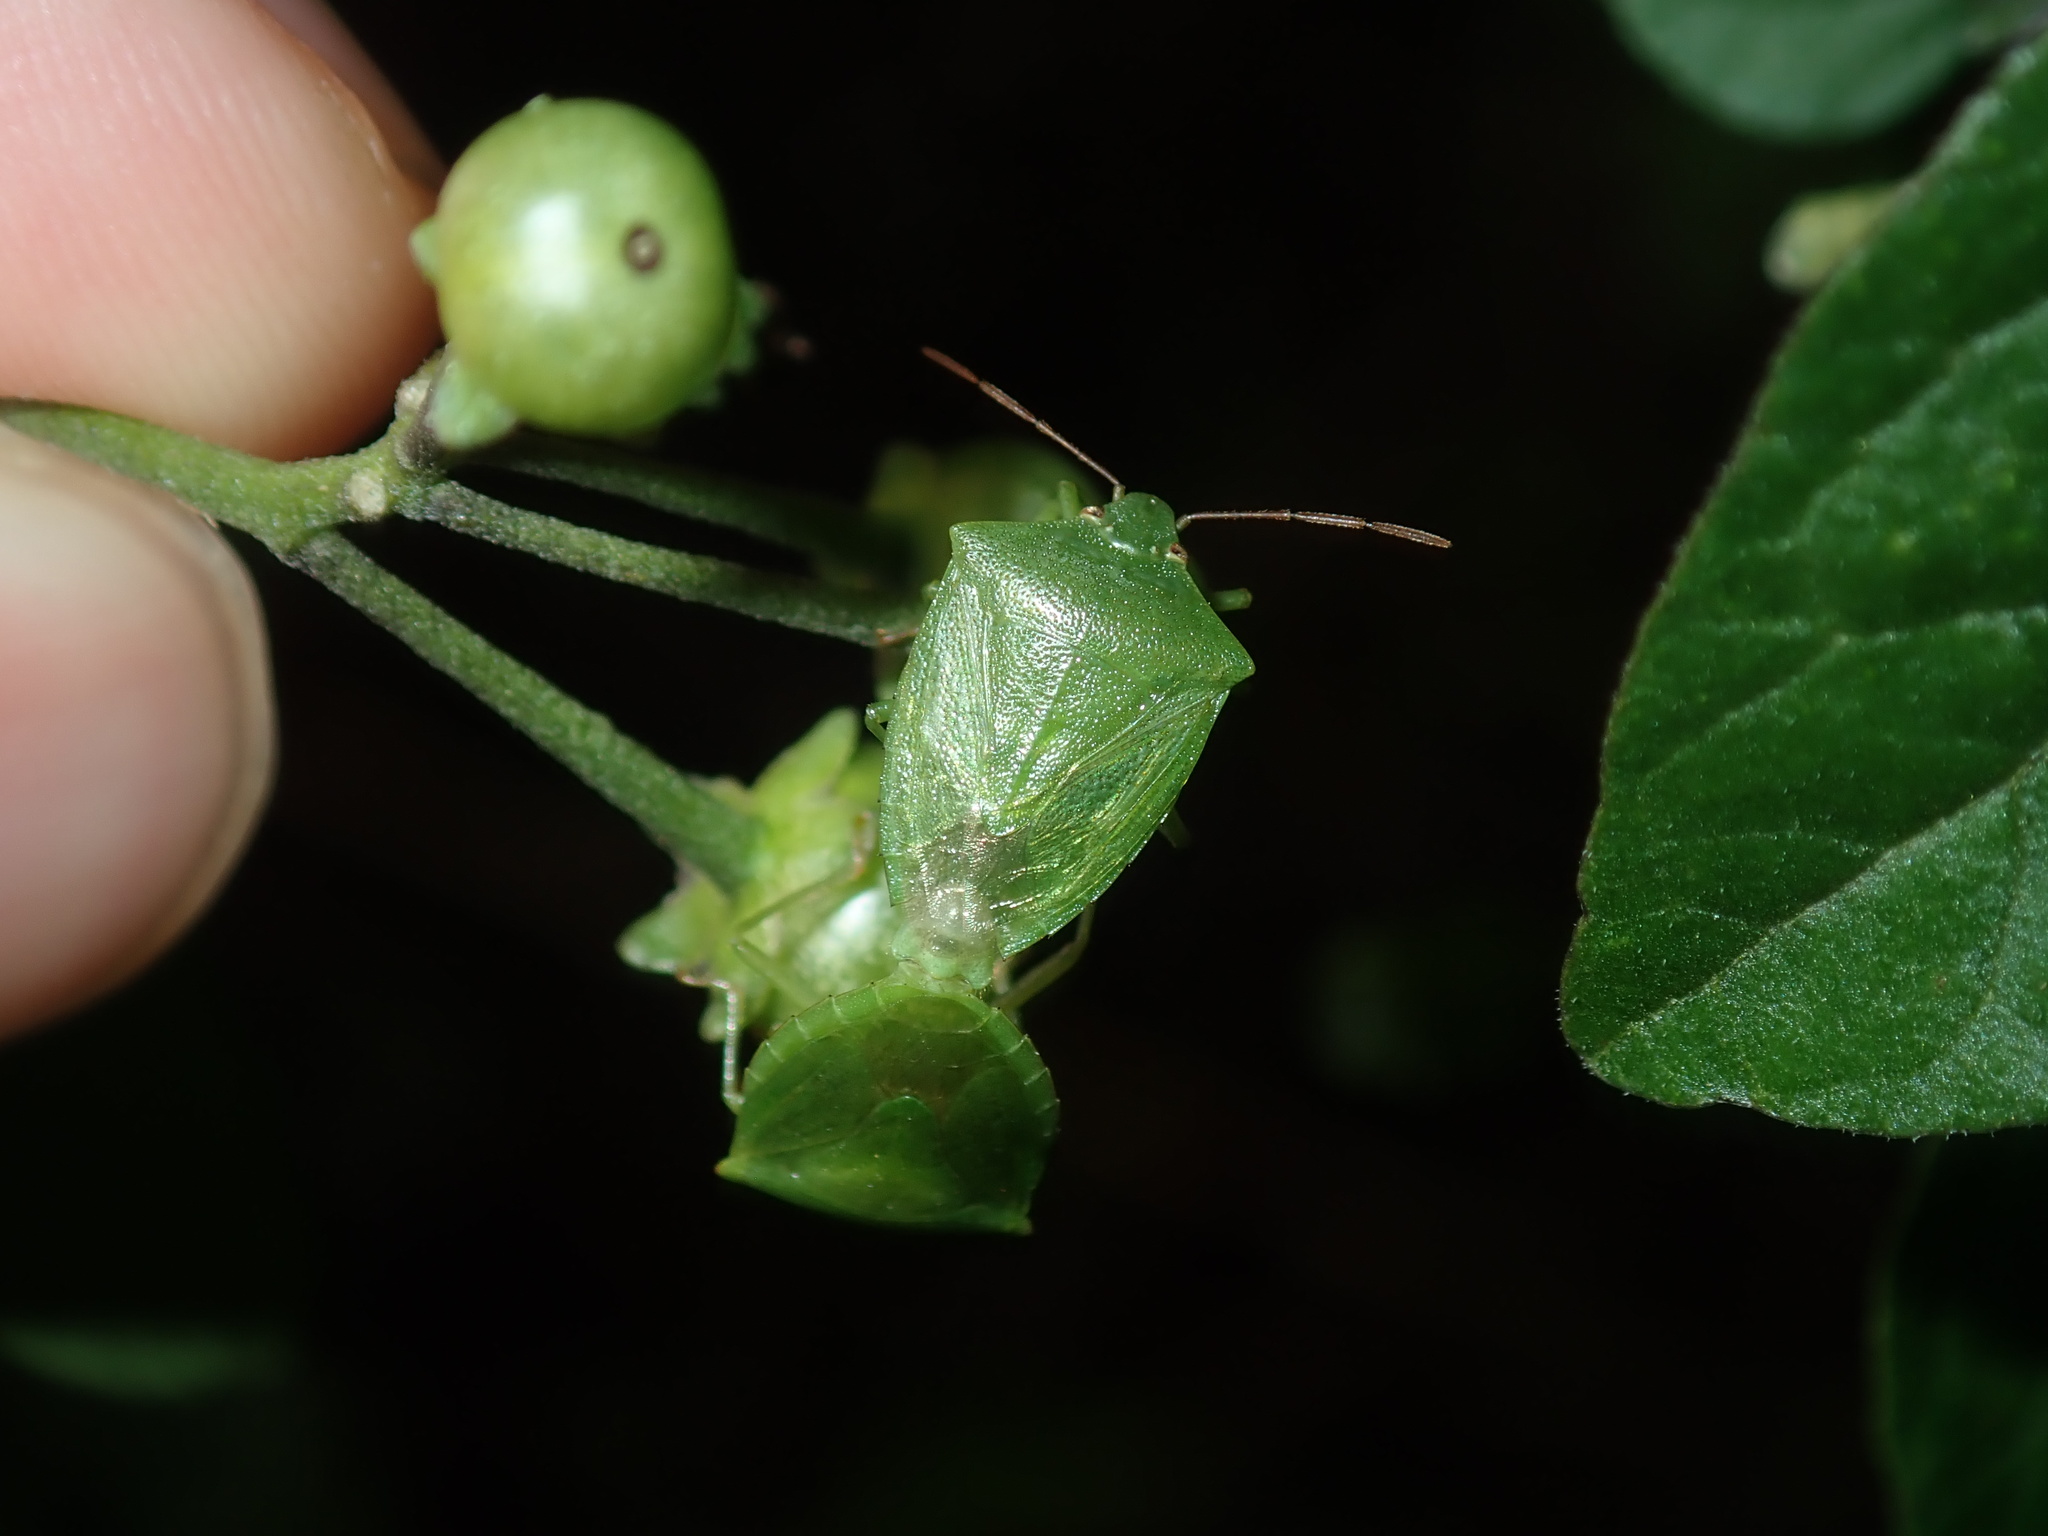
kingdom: Animalia
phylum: Arthropoda
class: Insecta
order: Hemiptera
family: Pentatomidae
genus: Cuspicona
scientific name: Cuspicona simplex
